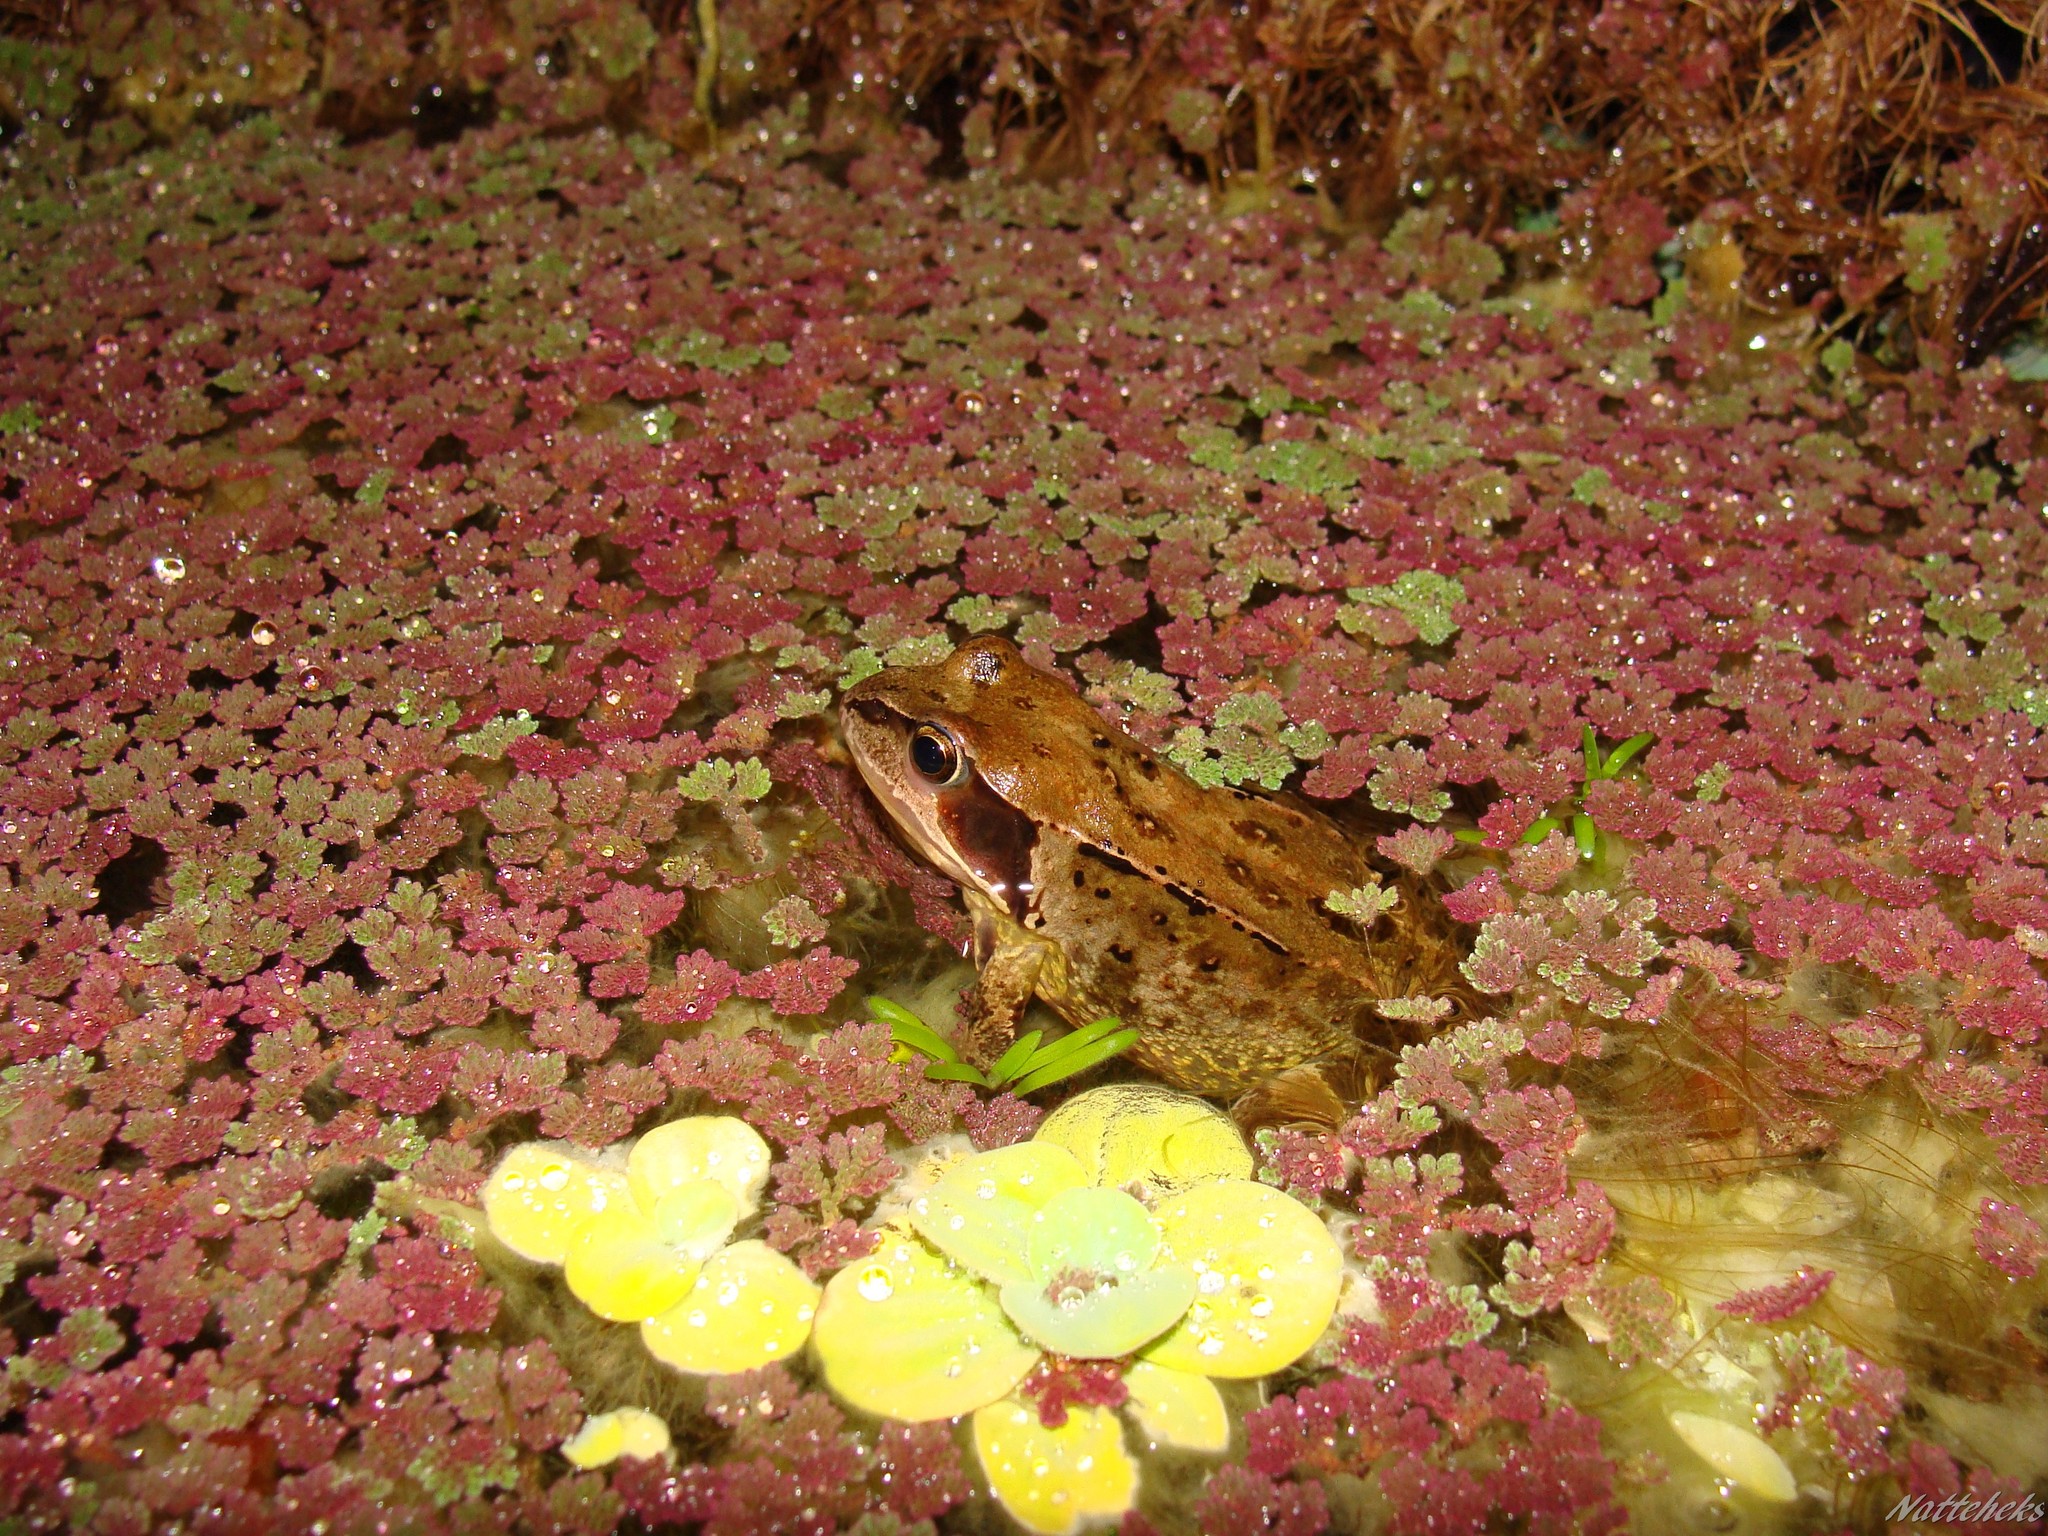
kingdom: Animalia
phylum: Chordata
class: Amphibia
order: Anura
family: Ranidae
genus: Rana
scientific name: Rana temporaria
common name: Common frog
